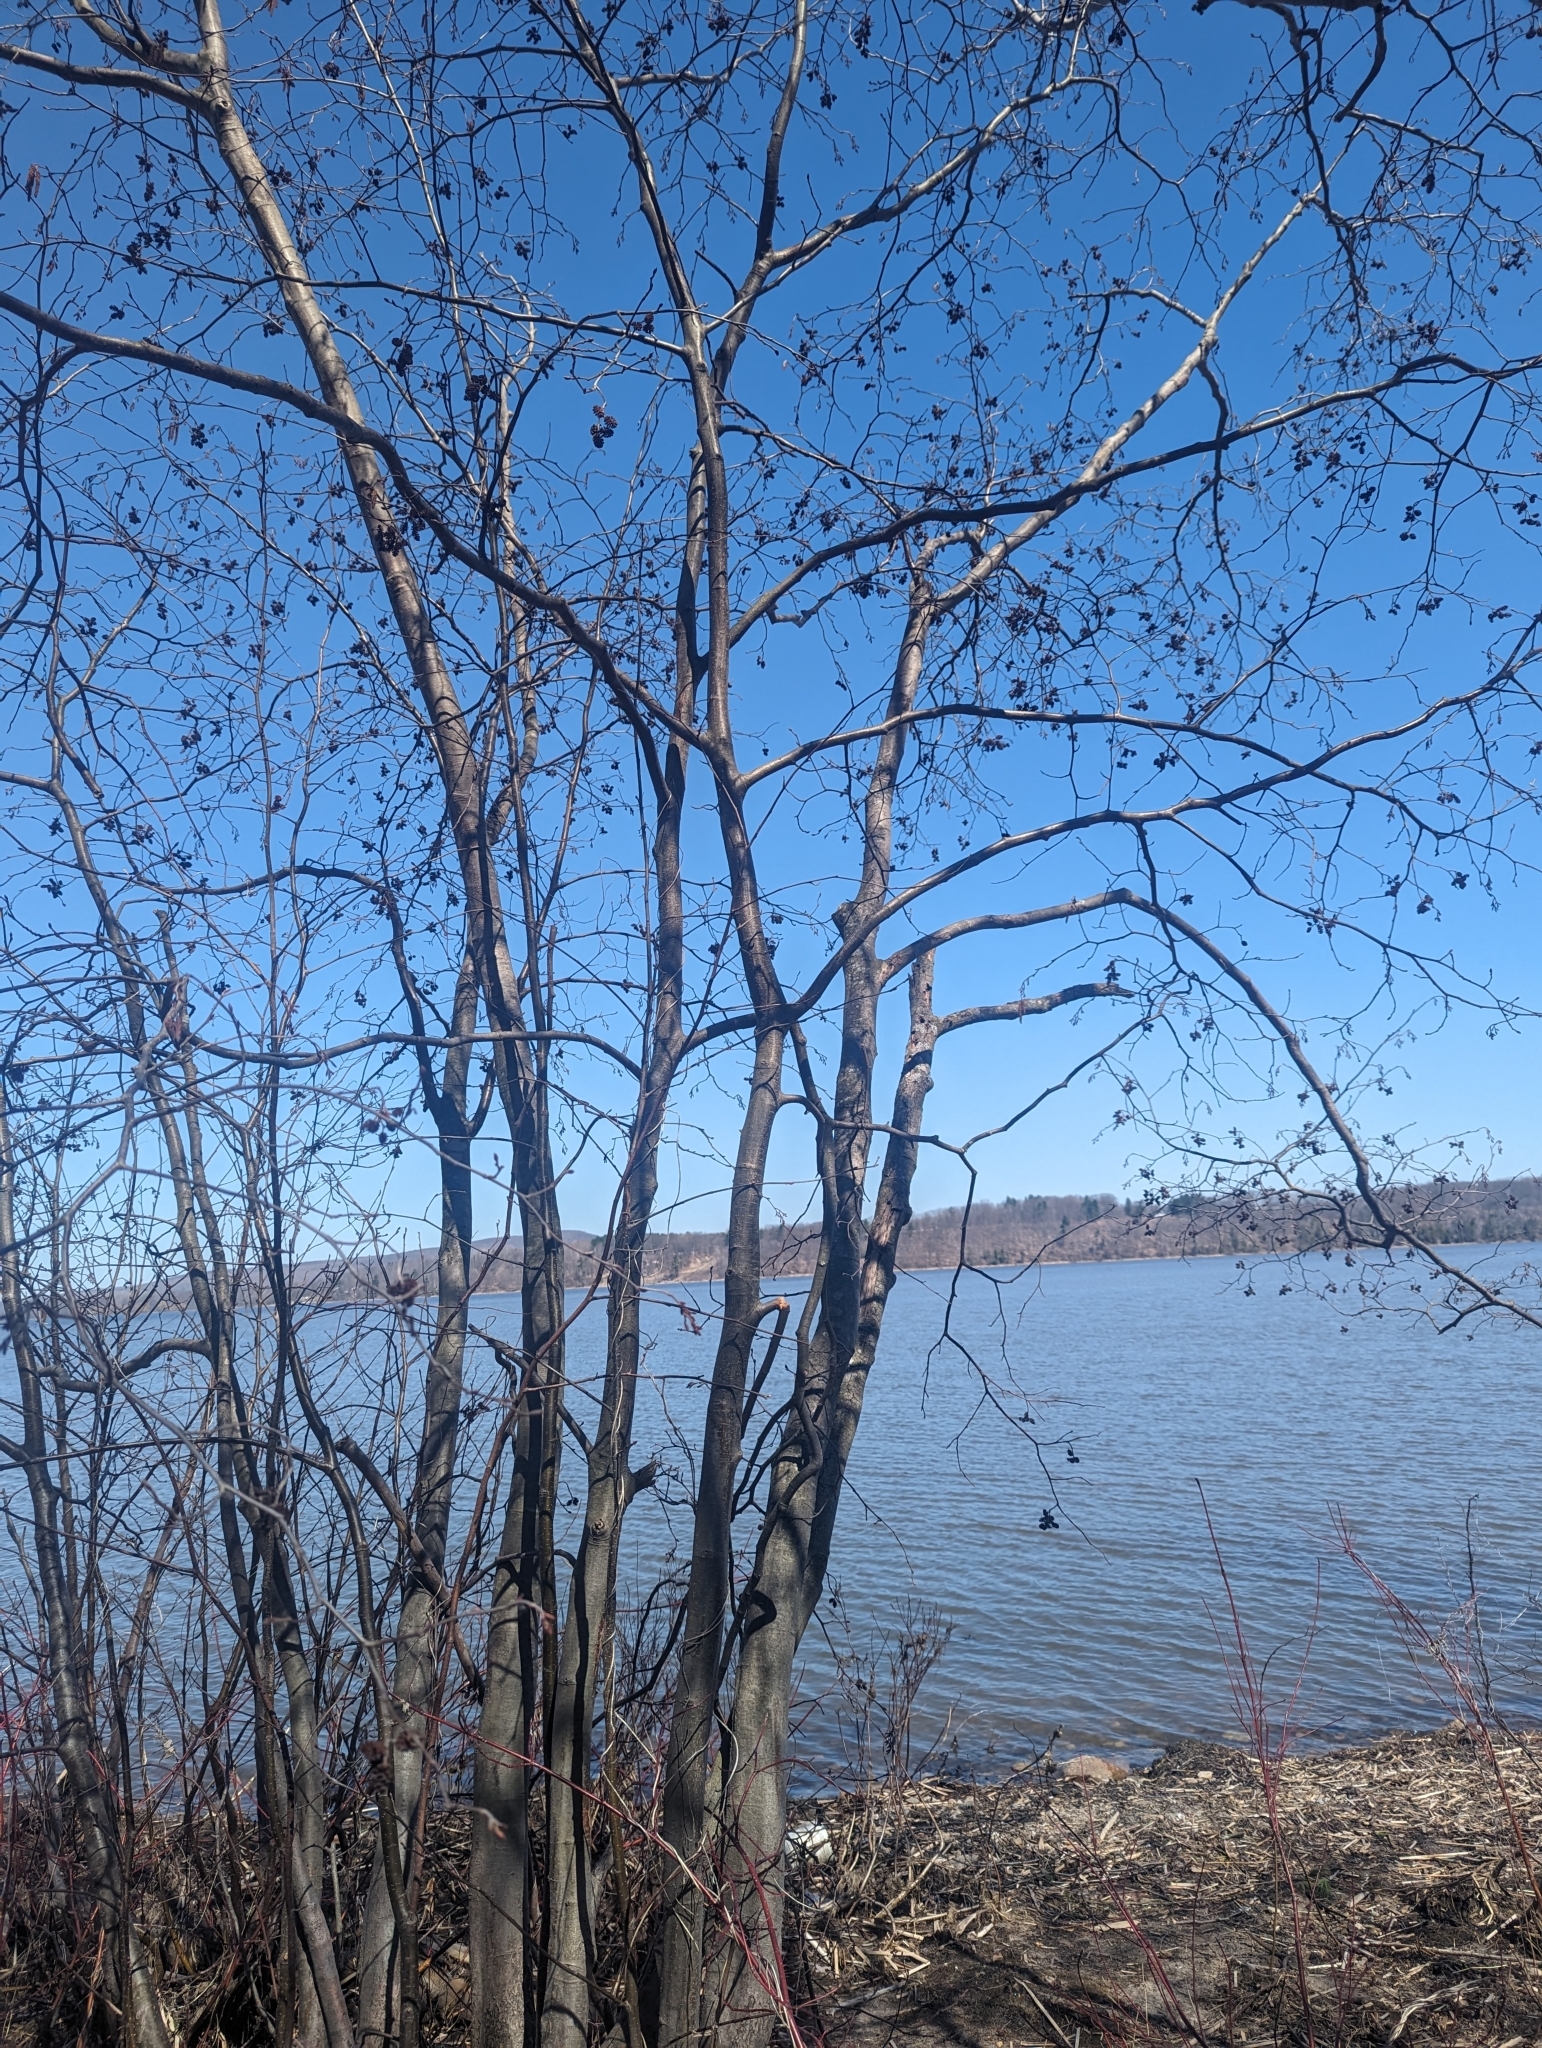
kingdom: Plantae
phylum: Tracheophyta
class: Magnoliopsida
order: Fagales
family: Betulaceae
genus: Alnus
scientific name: Alnus incana
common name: Grey alder
